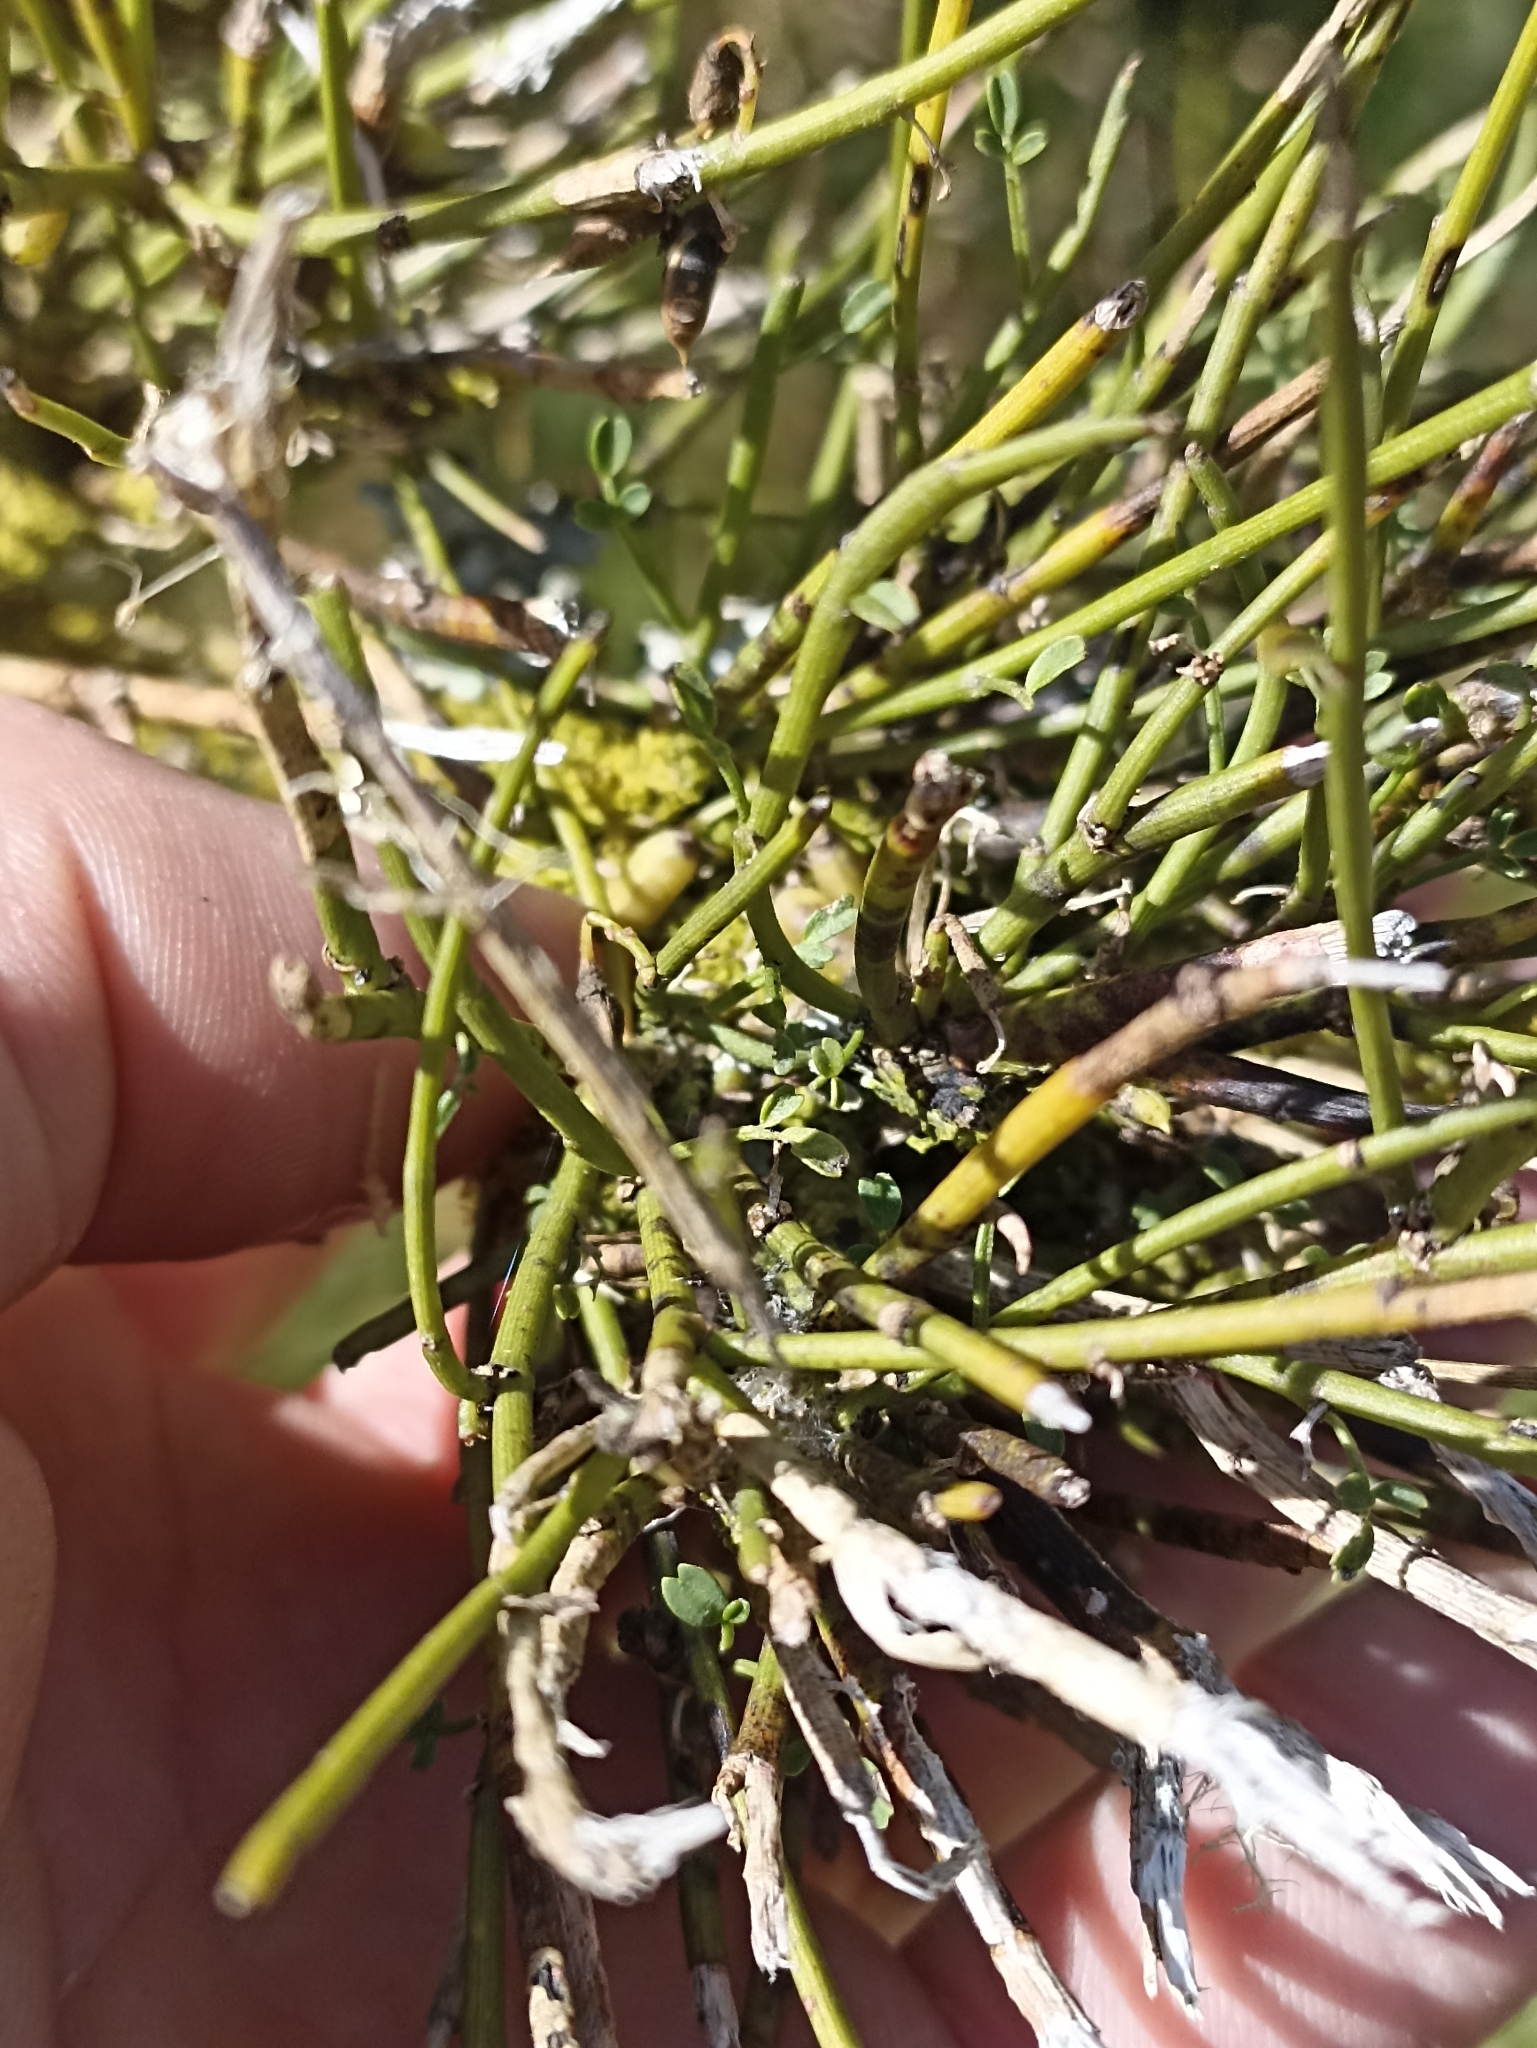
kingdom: Plantae
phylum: Tracheophyta
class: Magnoliopsida
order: Fabales
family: Fabaceae
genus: Carmichaelia
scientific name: Carmichaelia petriei
